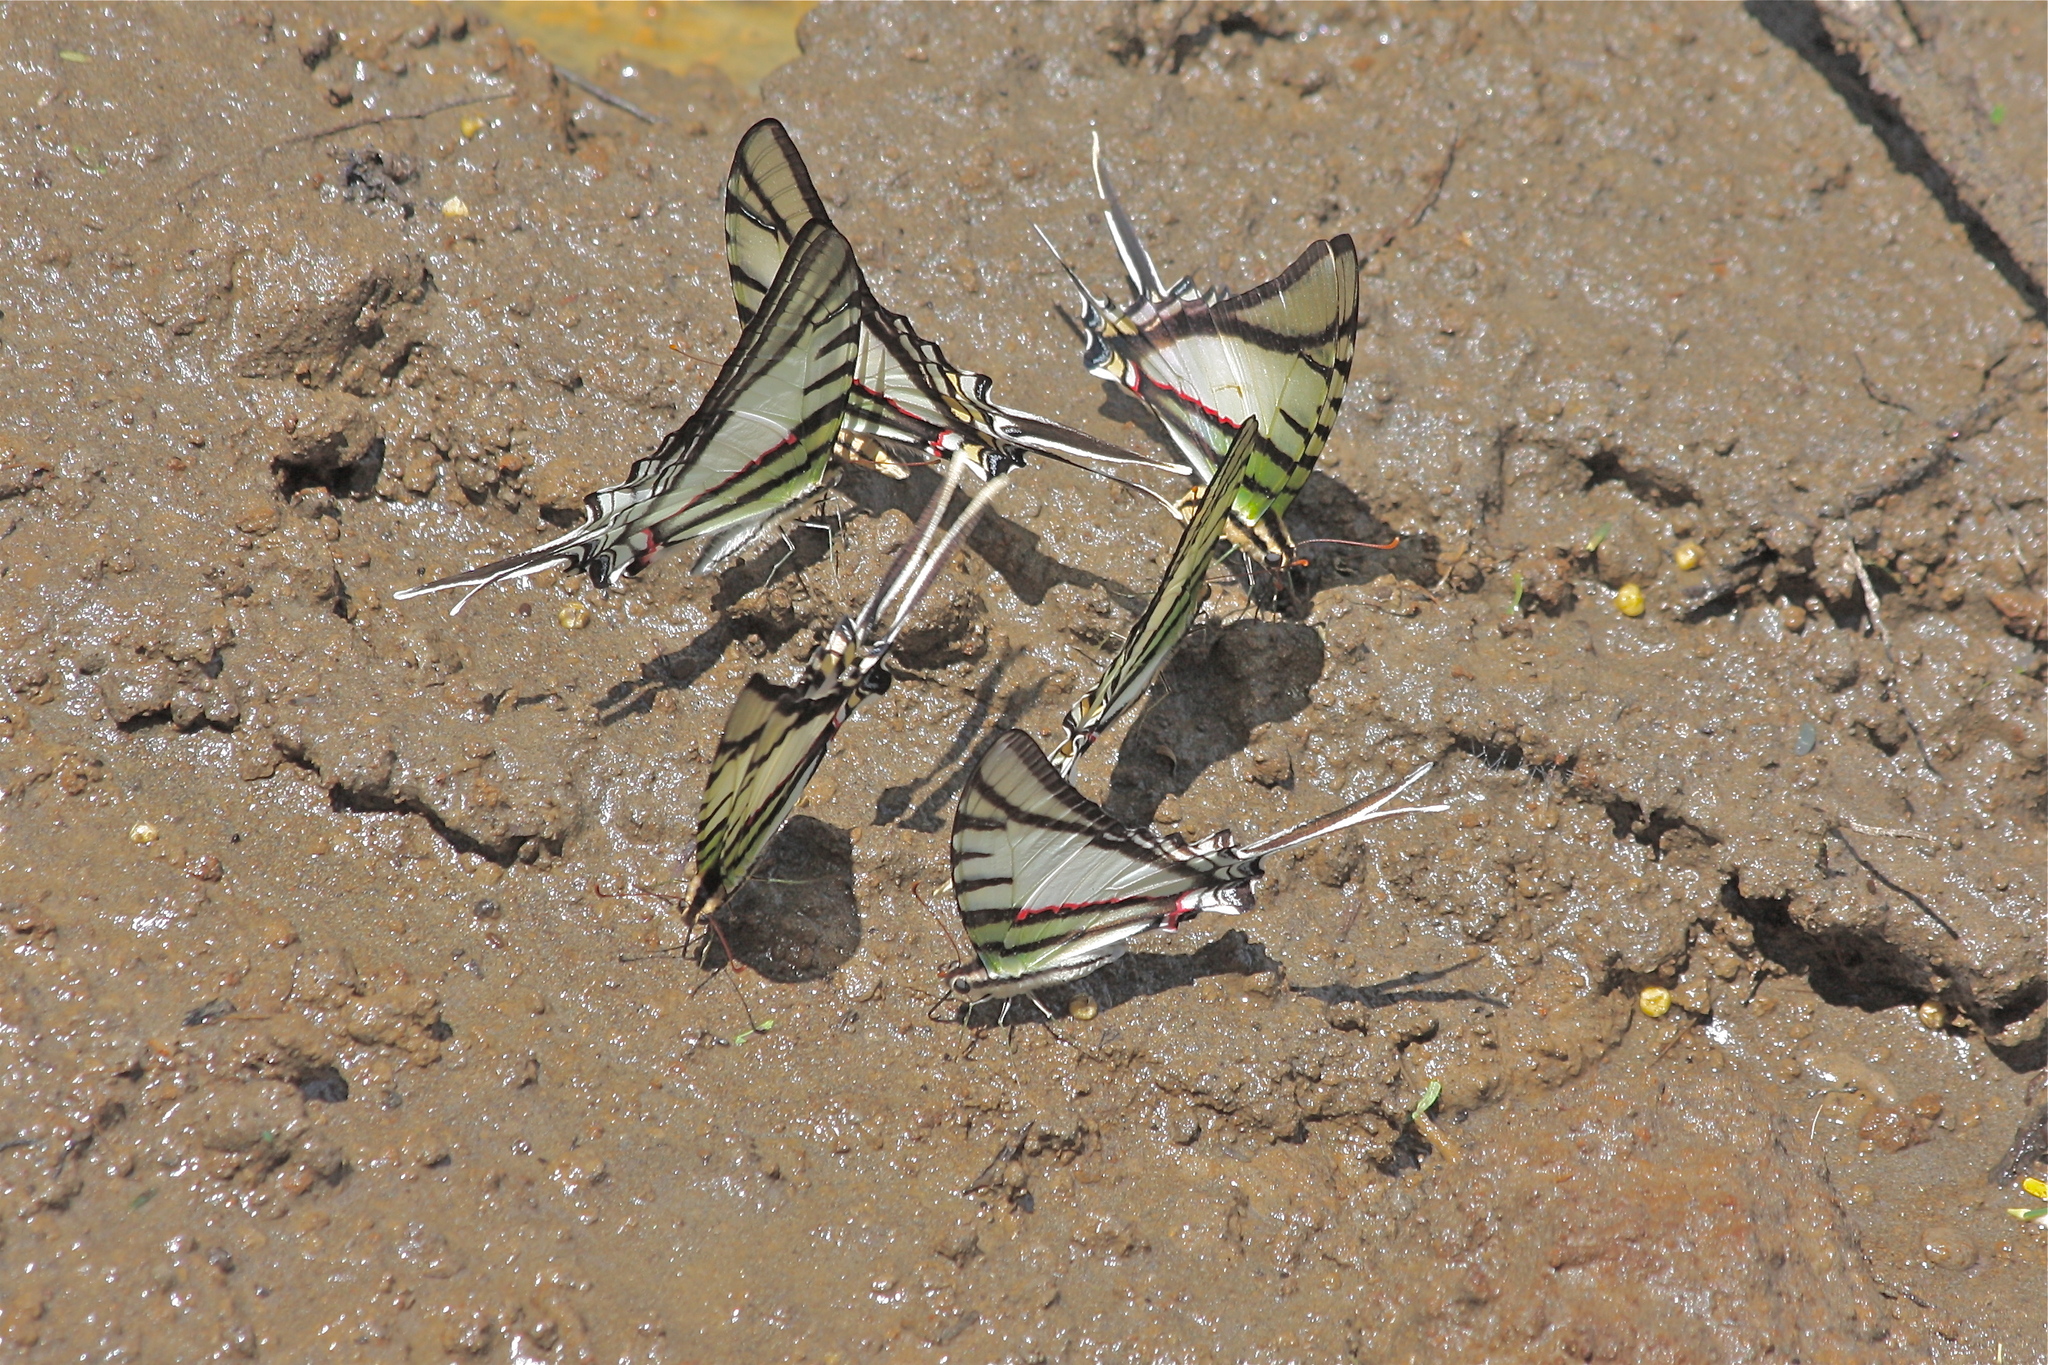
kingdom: Animalia
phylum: Arthropoda
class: Insecta
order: Lepidoptera
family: Papilionidae
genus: Eurytides
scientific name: Eurytides
